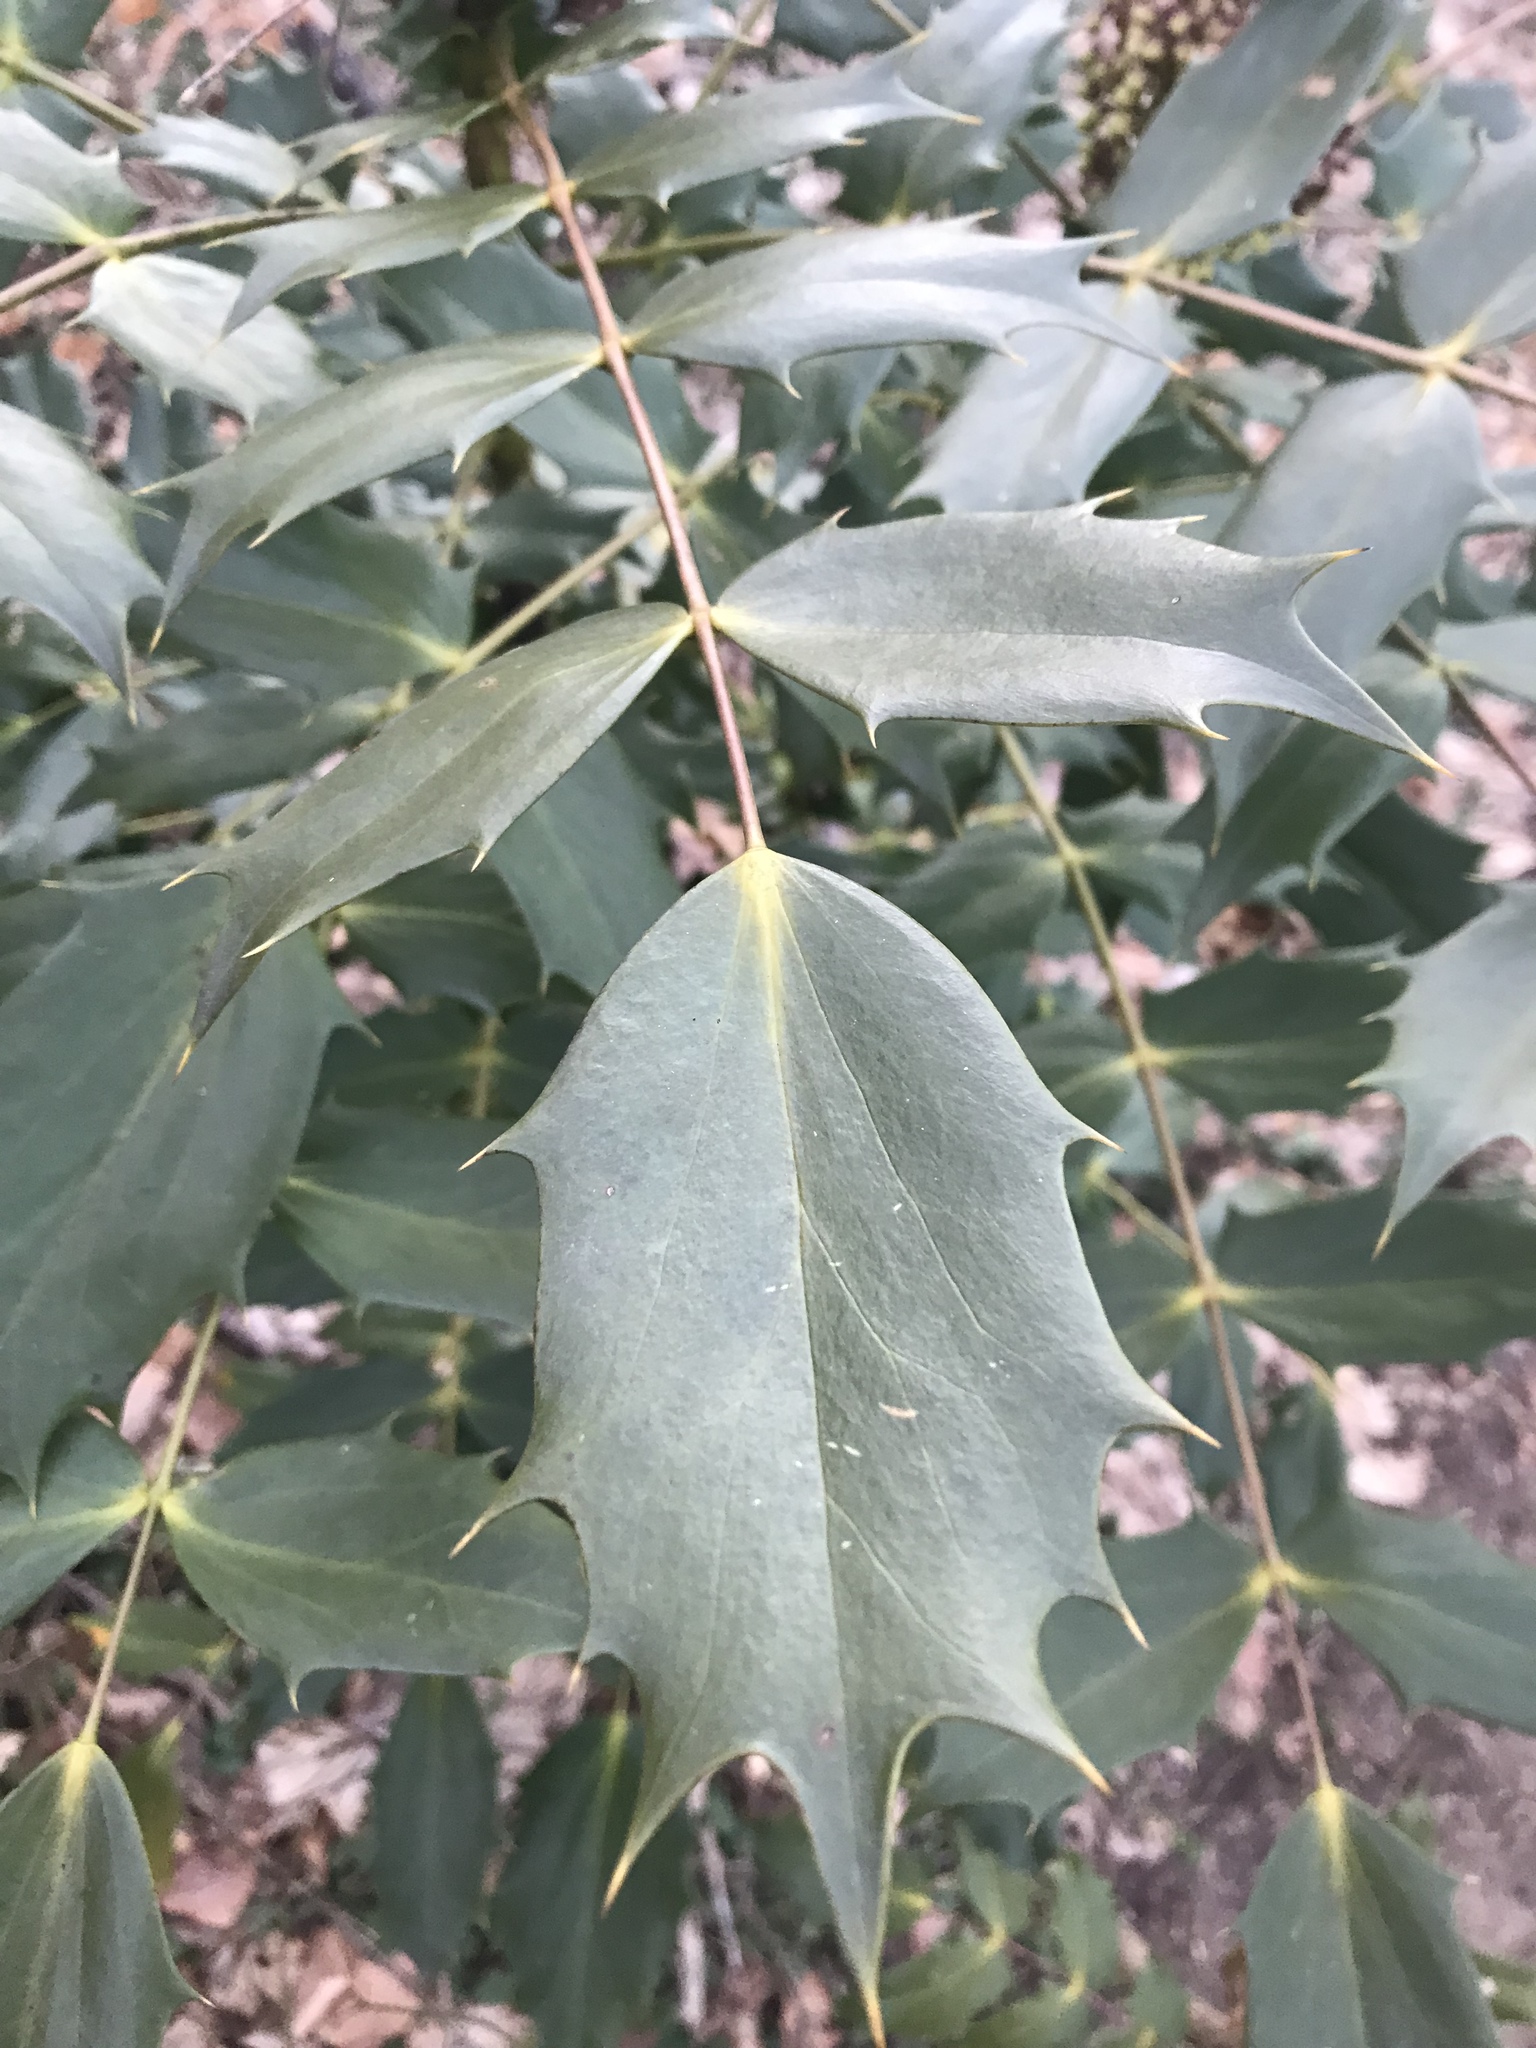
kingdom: Plantae
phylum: Tracheophyta
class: Magnoliopsida
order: Ranunculales
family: Berberidaceae
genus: Mahonia
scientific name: Mahonia bealei
